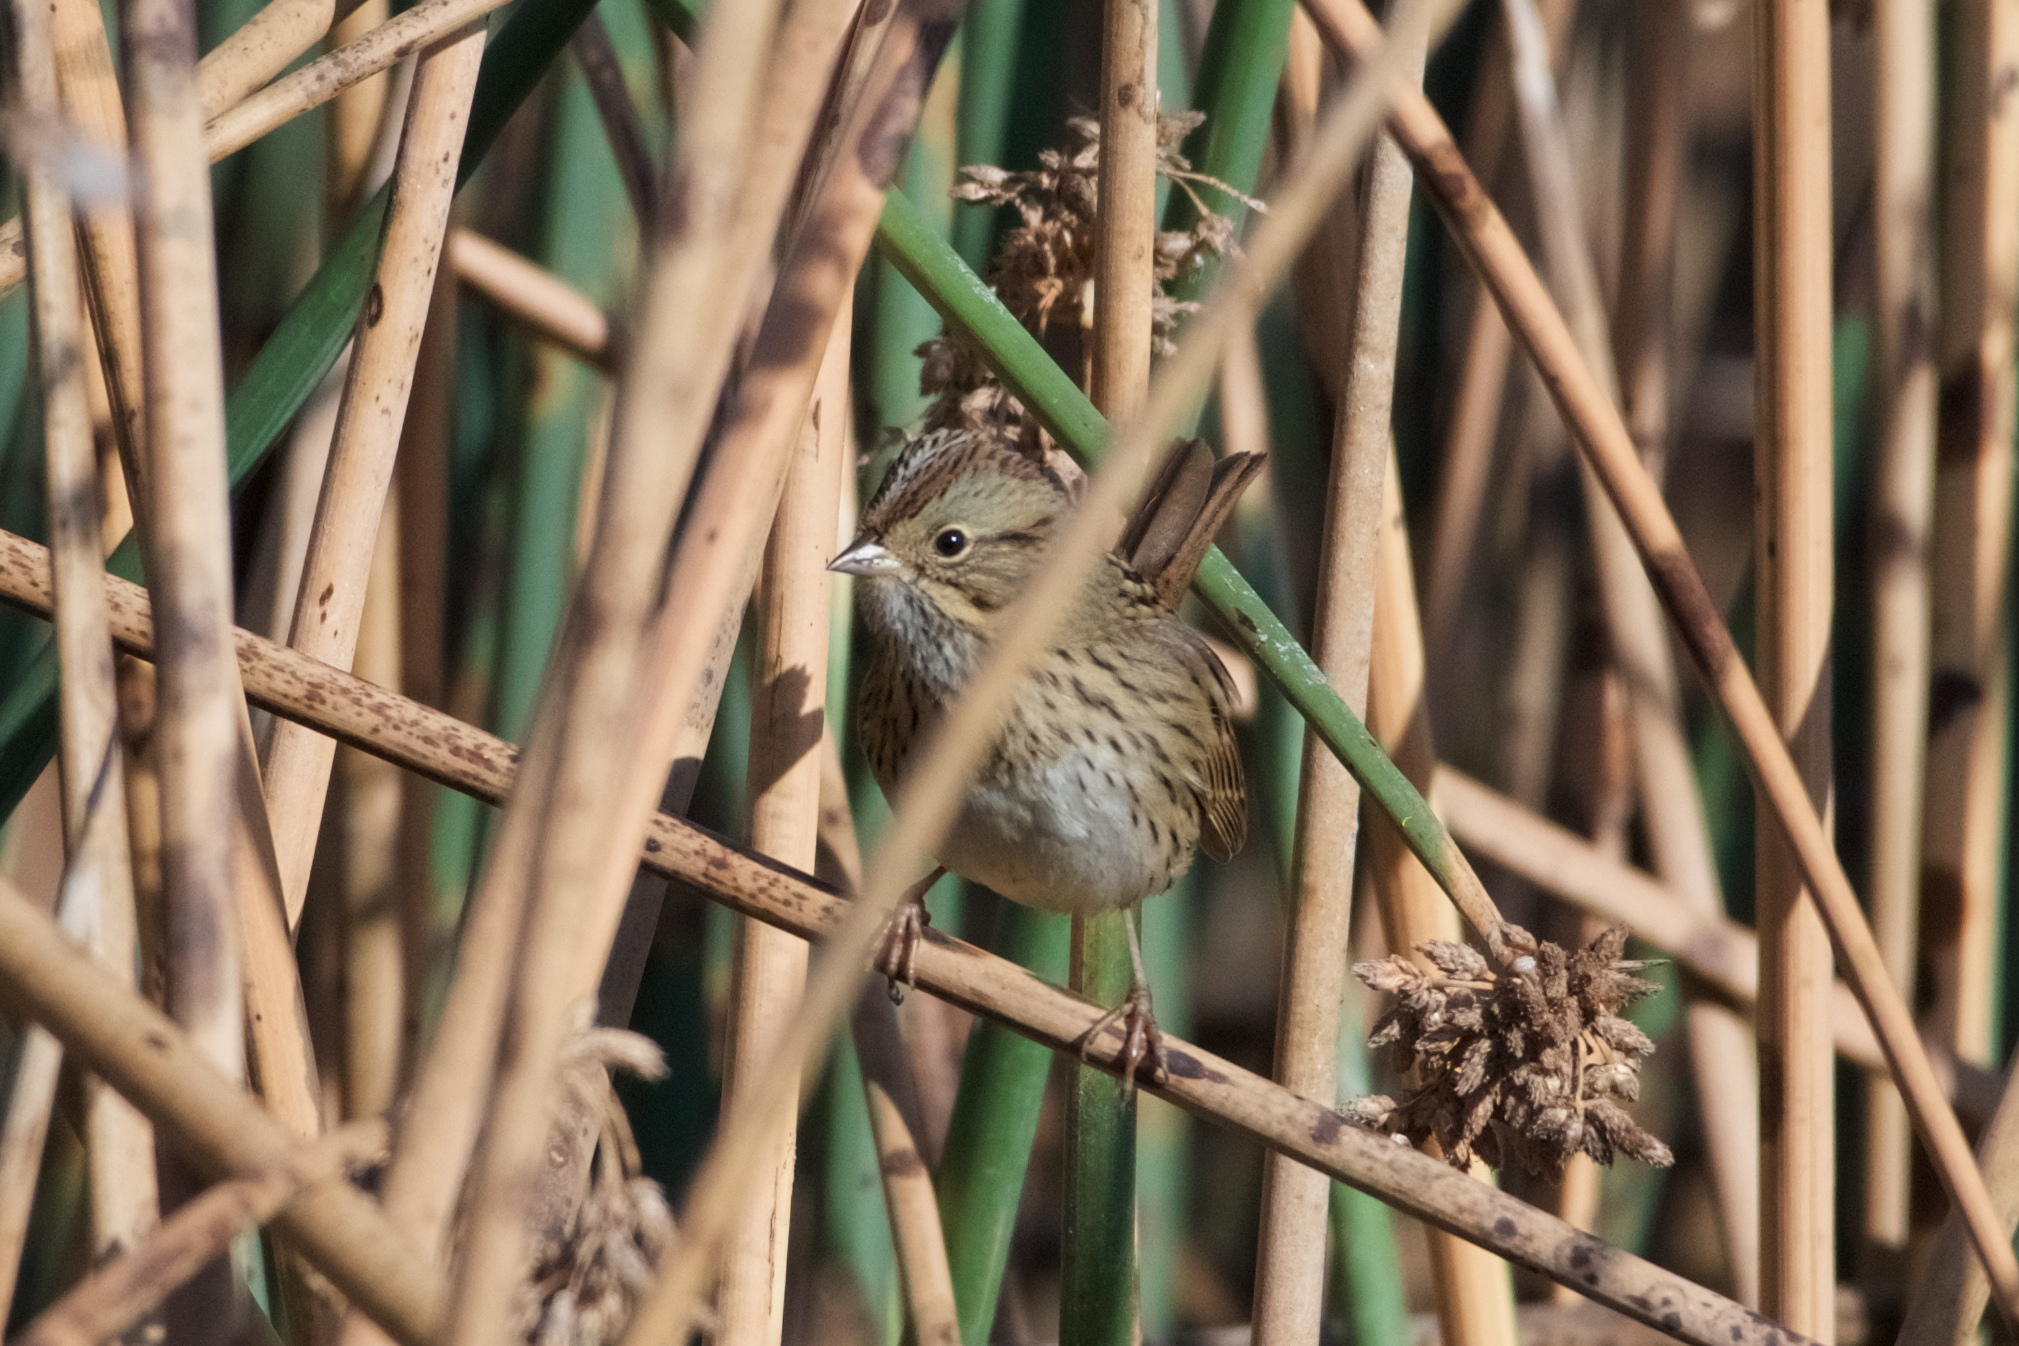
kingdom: Animalia
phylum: Chordata
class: Aves
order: Passeriformes
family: Passerellidae
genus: Melospiza
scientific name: Melospiza lincolnii
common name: Lincoln's sparrow
